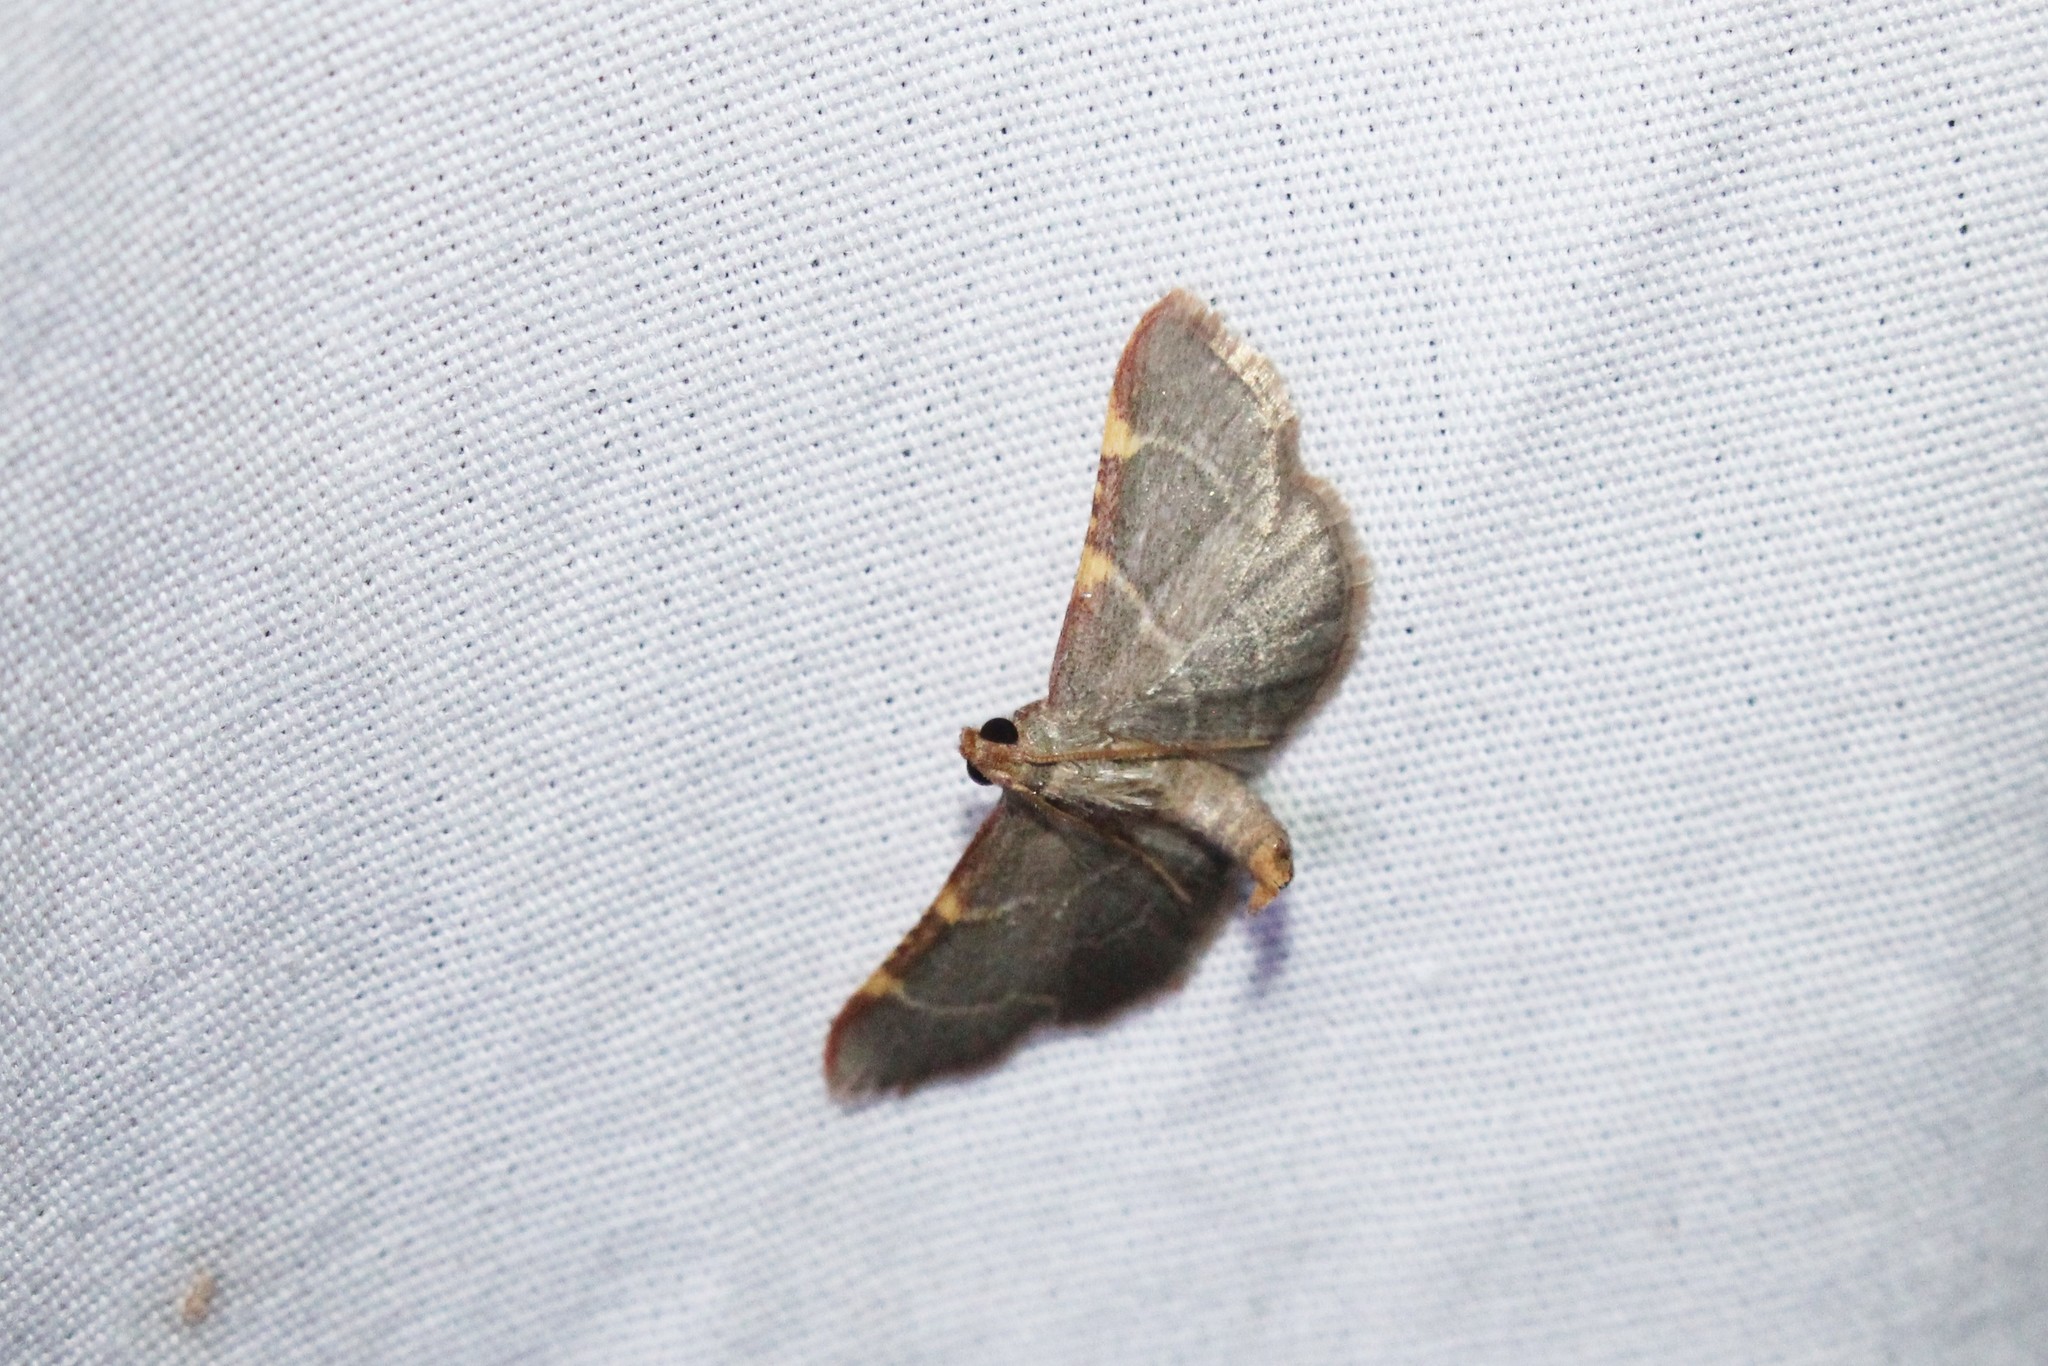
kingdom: Animalia
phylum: Arthropoda
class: Insecta
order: Lepidoptera
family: Pyralidae
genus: Hypsopygia
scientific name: Hypsopygia binodulalis
